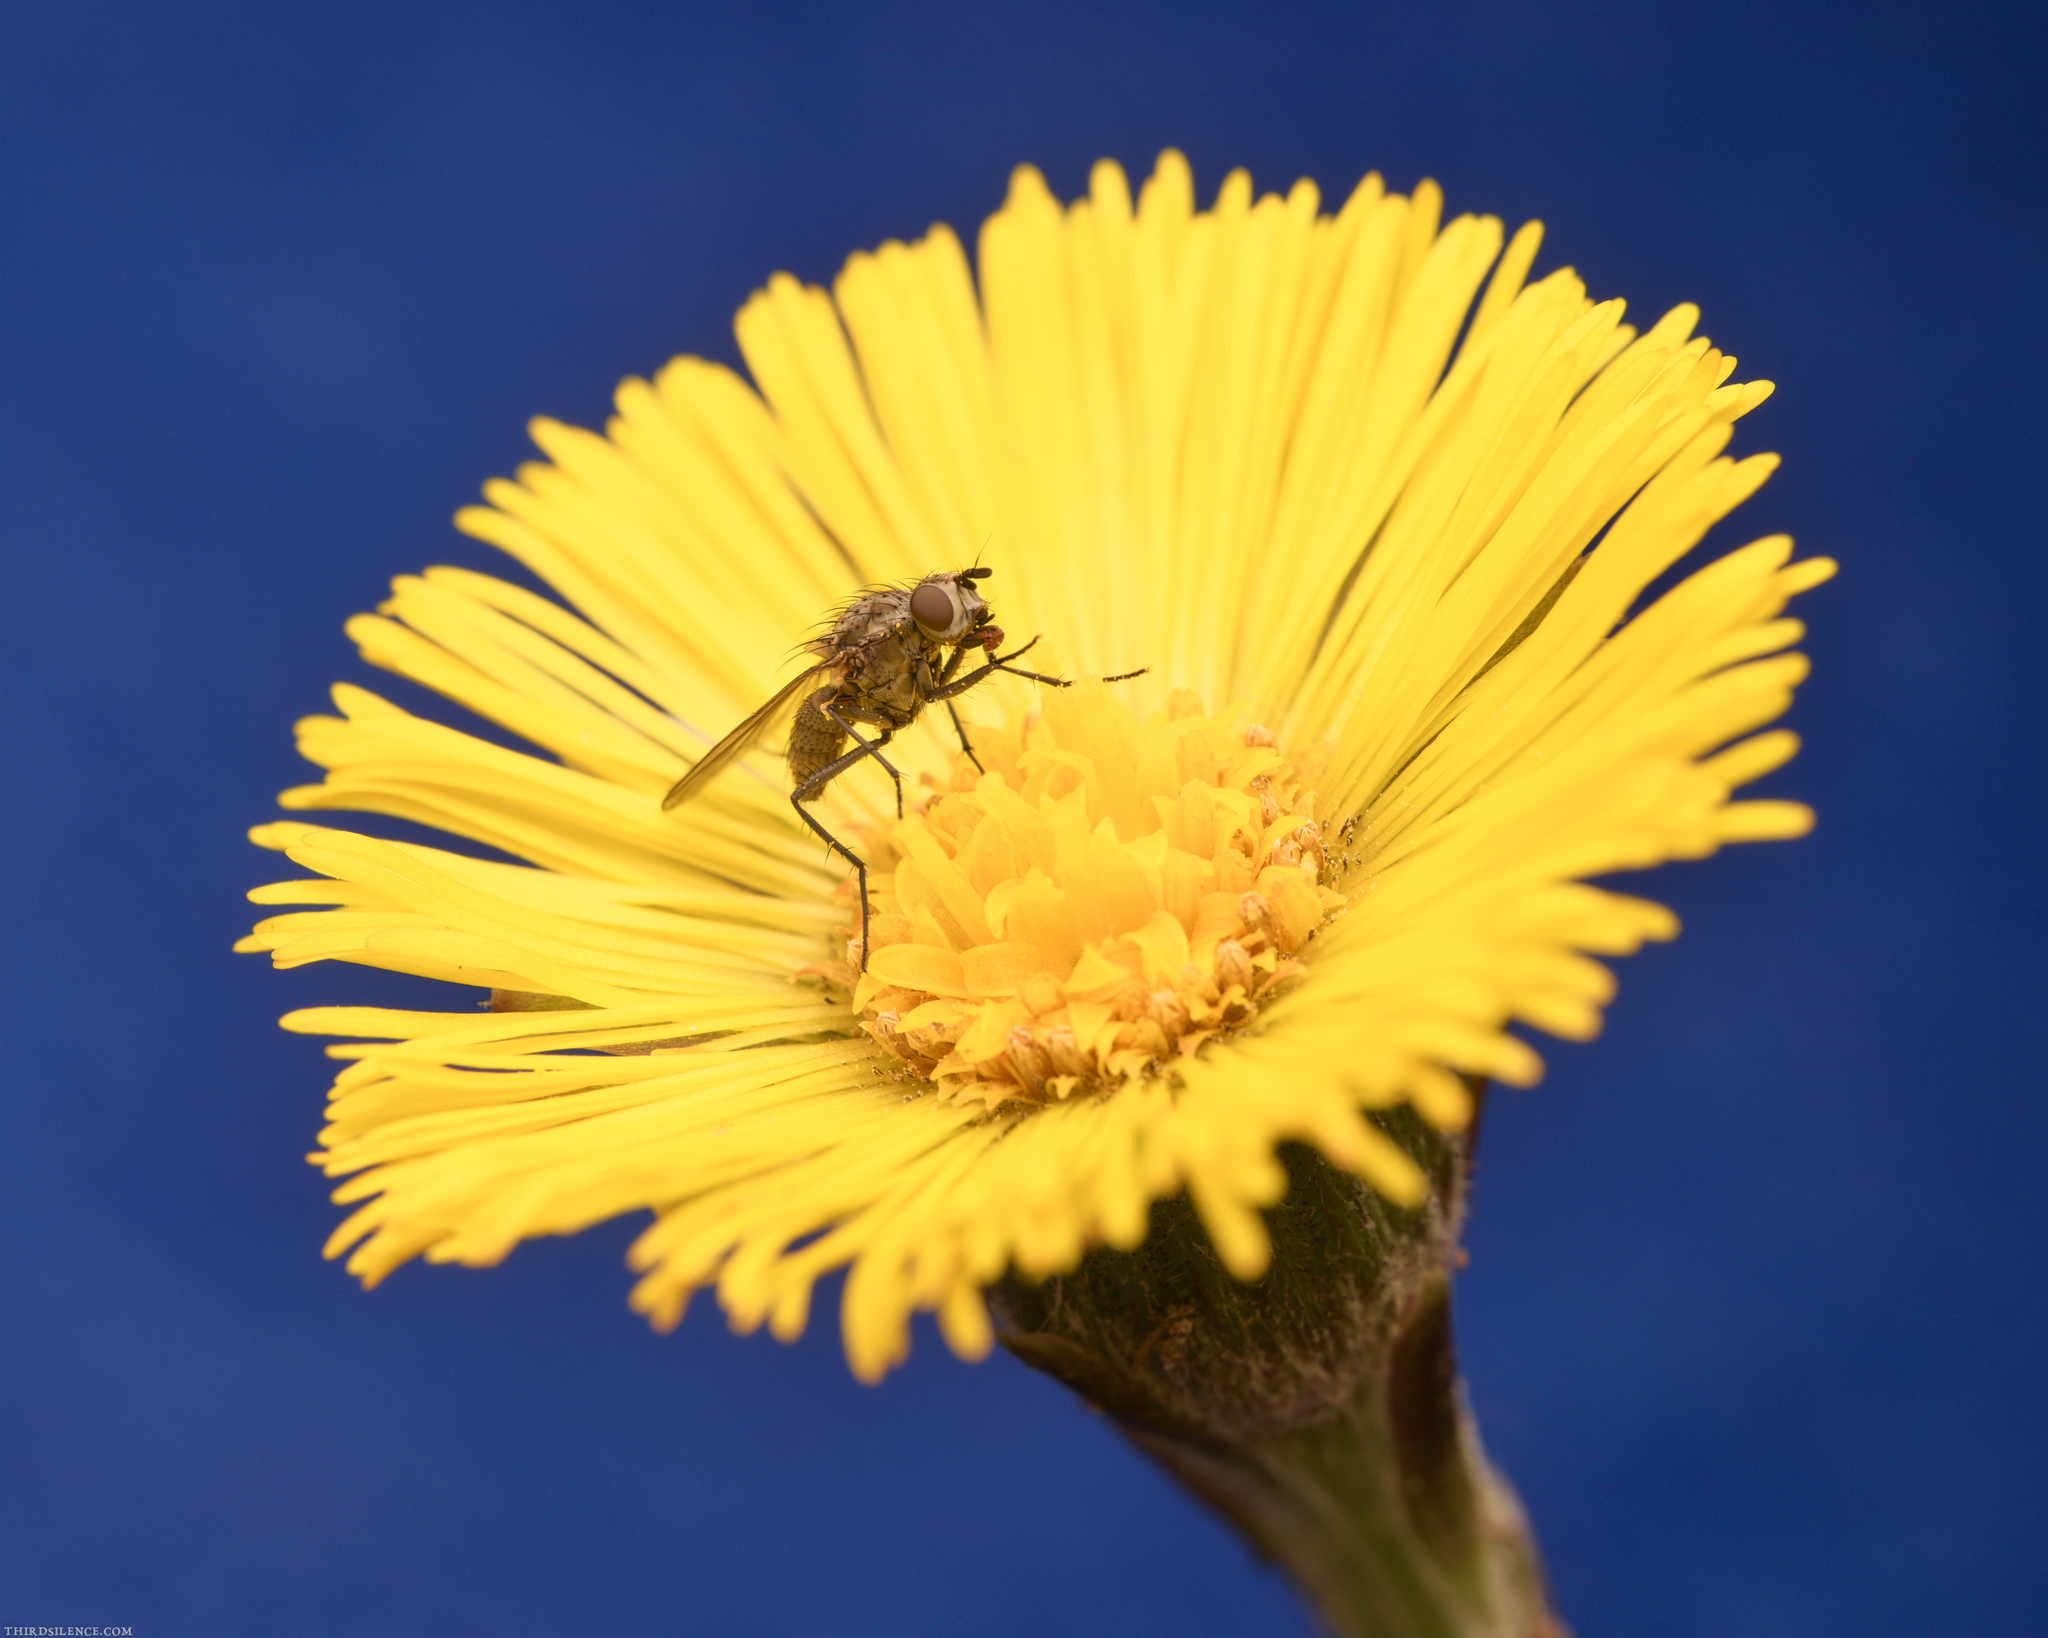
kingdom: Plantae
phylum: Tracheophyta
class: Magnoliopsida
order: Asterales
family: Asteraceae
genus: Tussilago
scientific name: Tussilago farfara
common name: Coltsfoot
